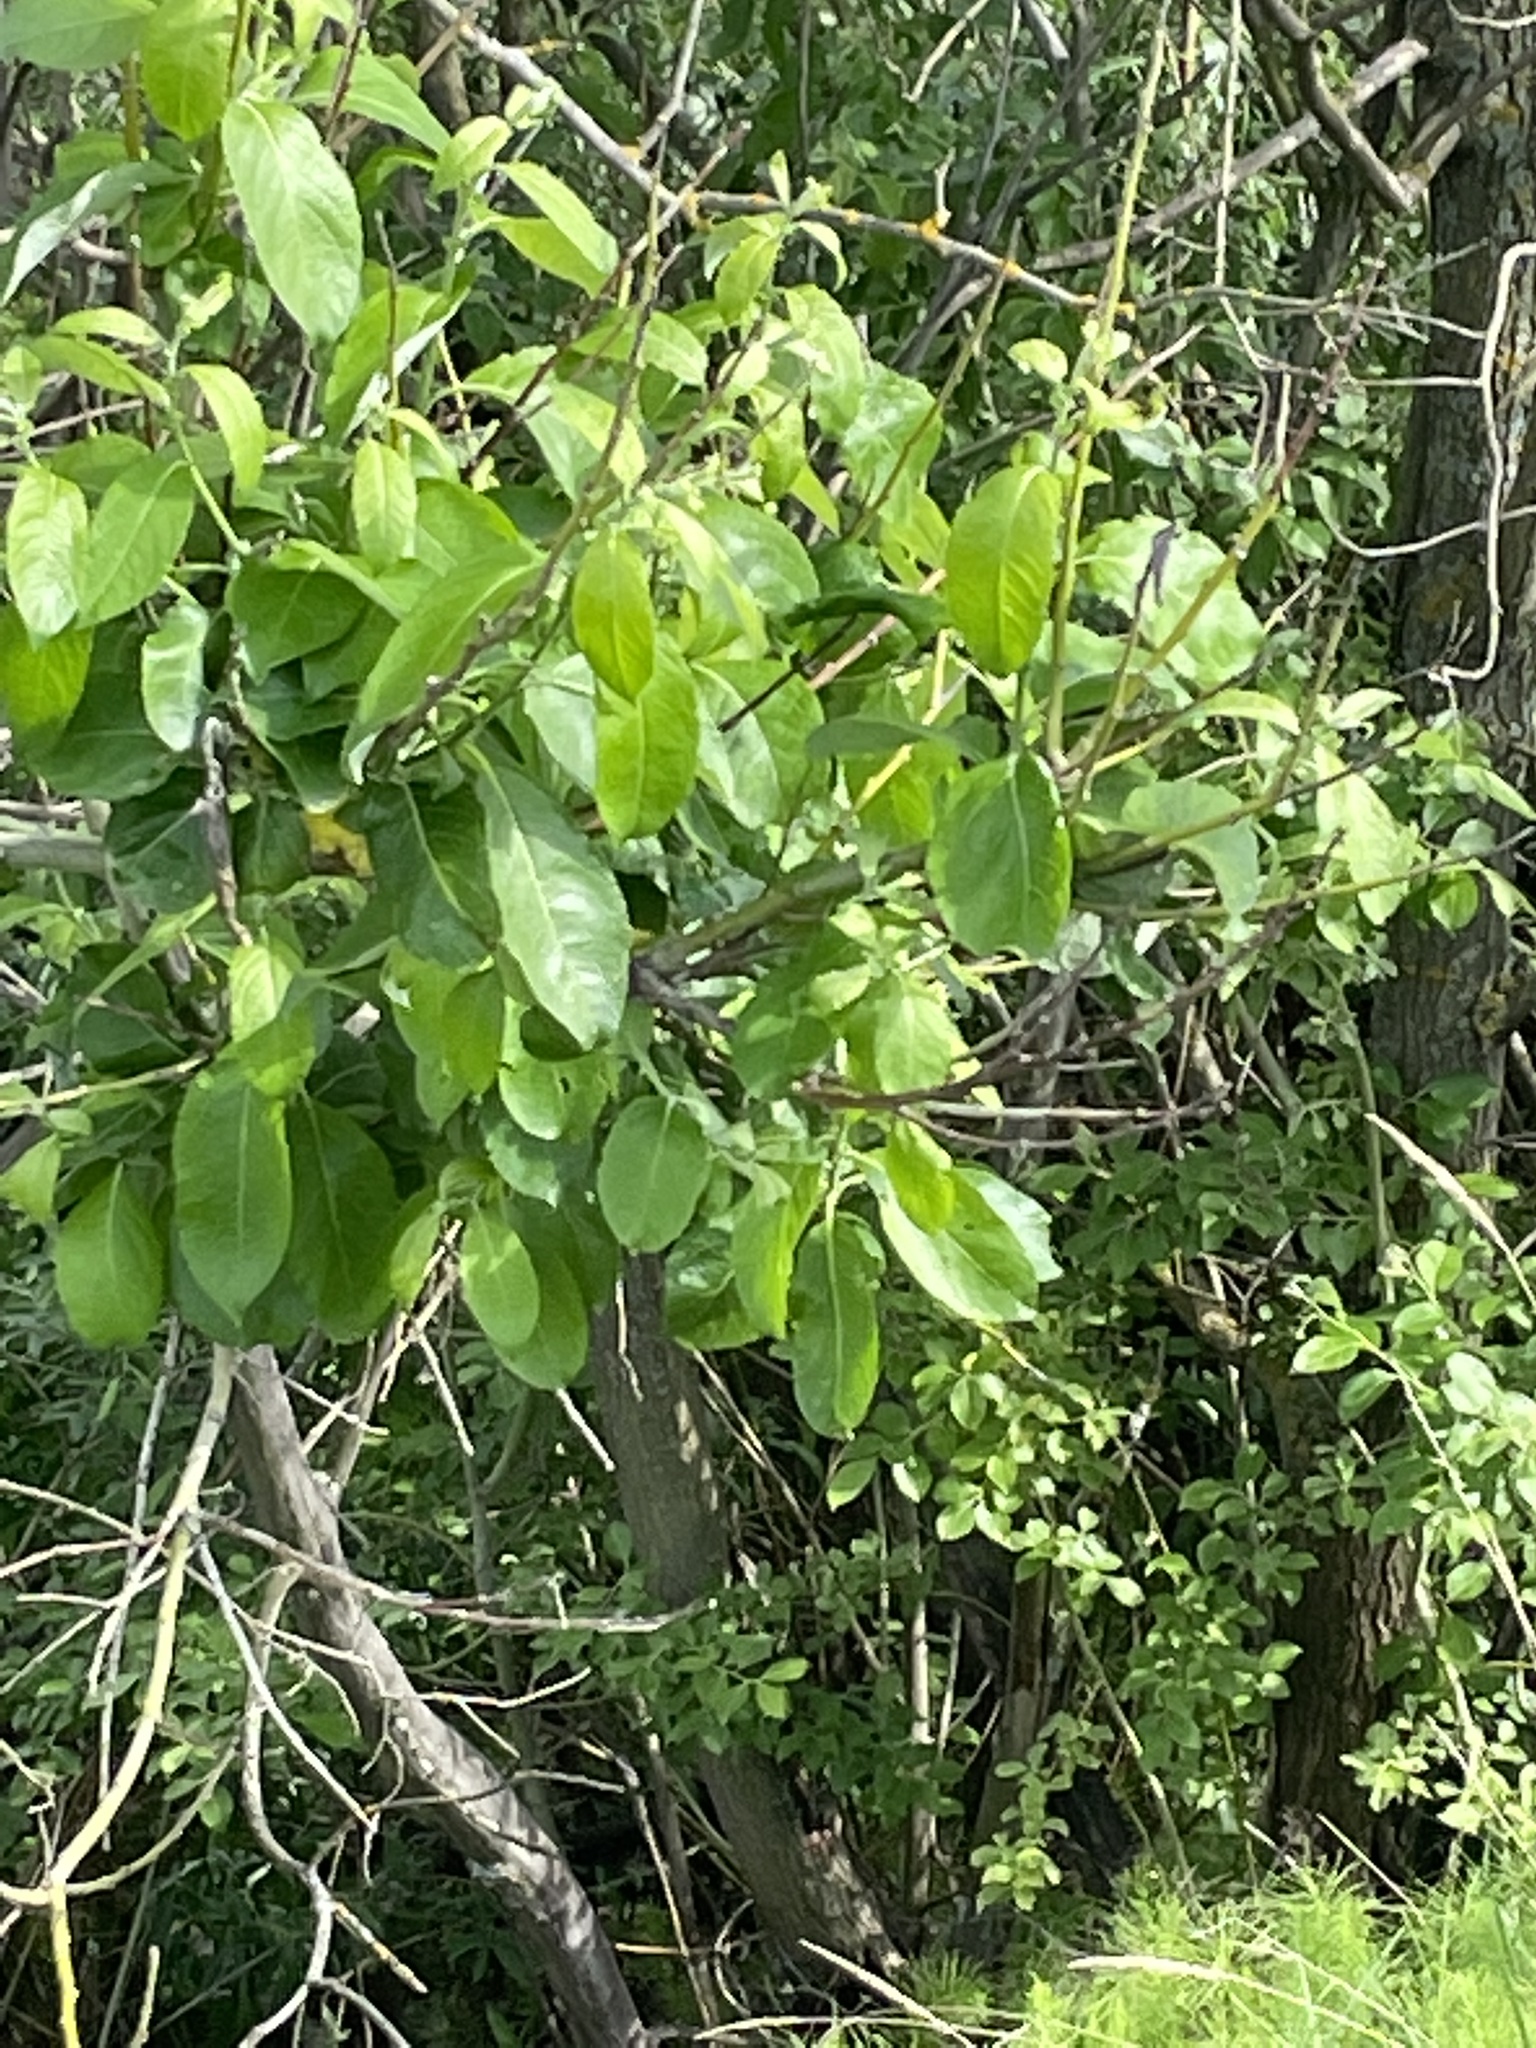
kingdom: Plantae
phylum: Tracheophyta
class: Magnoliopsida
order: Malpighiales
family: Salicaceae
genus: Salix
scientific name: Salix caprea
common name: Goat willow
